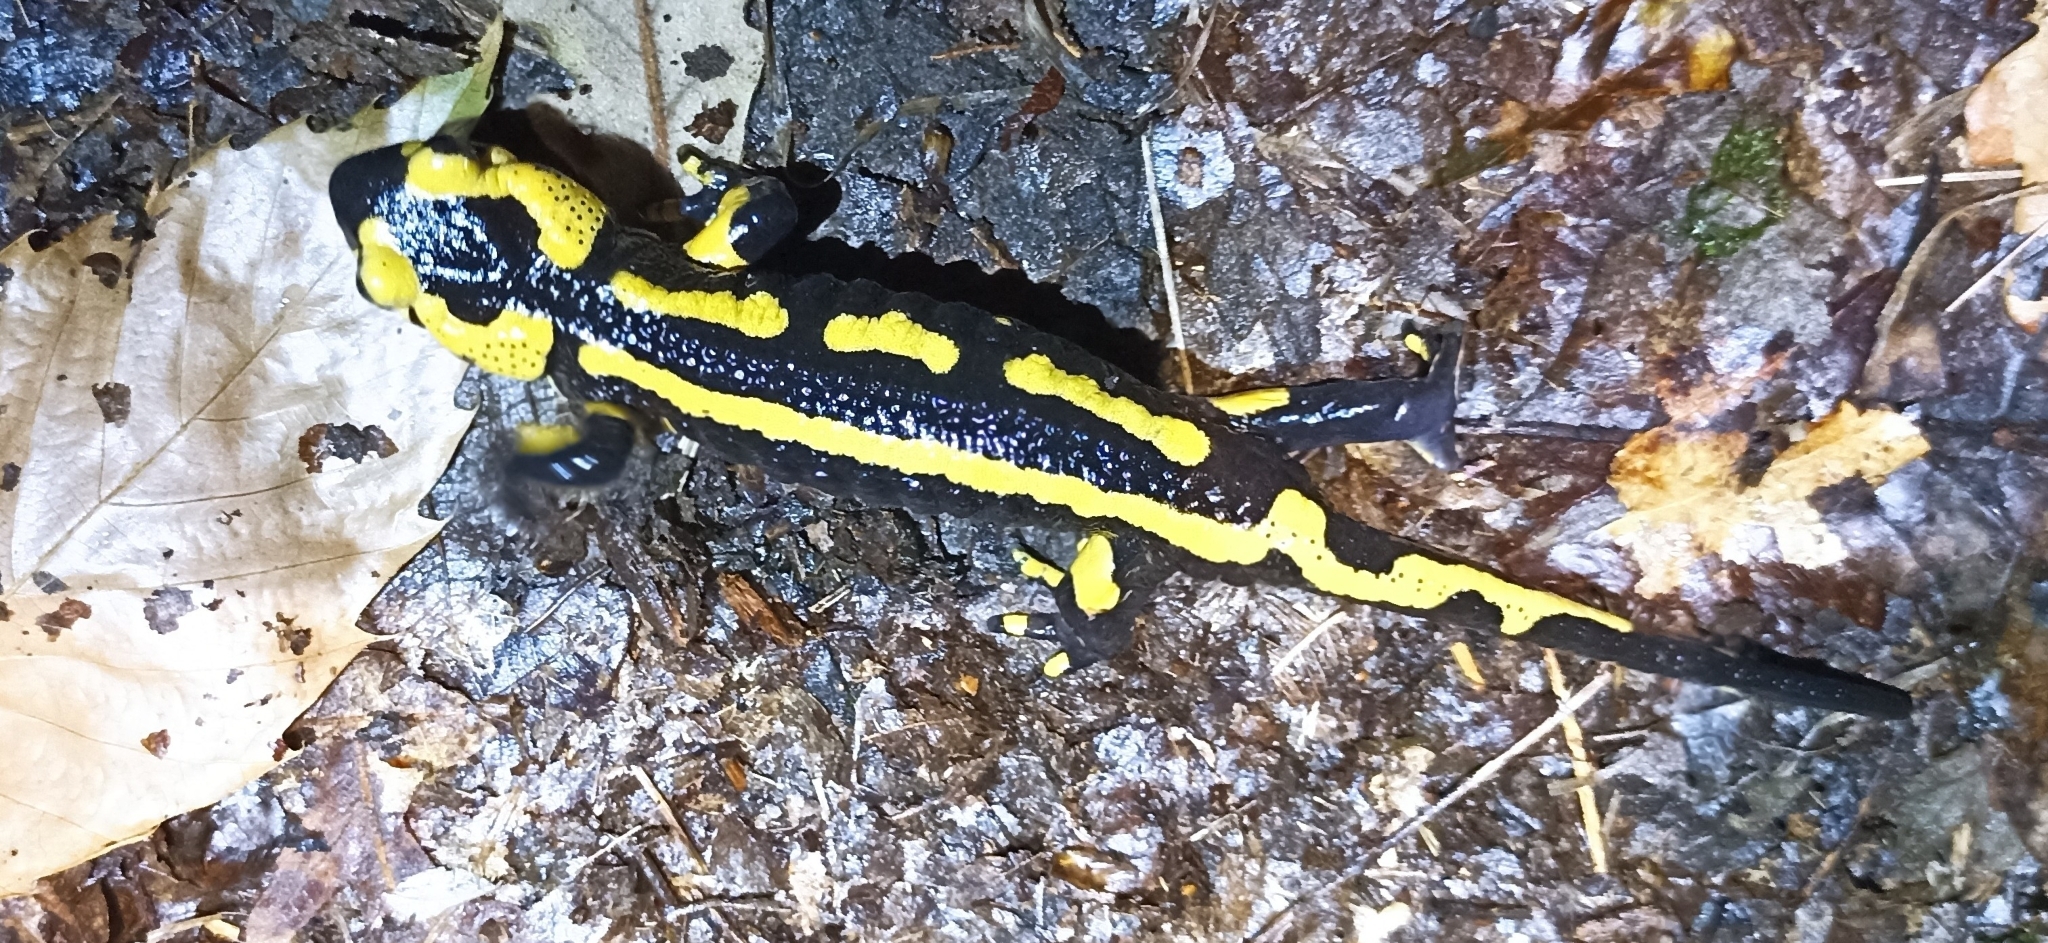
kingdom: Animalia
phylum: Chordata
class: Amphibia
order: Caudata
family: Salamandridae
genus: Salamandra
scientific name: Salamandra salamandra
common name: Fire salamander
